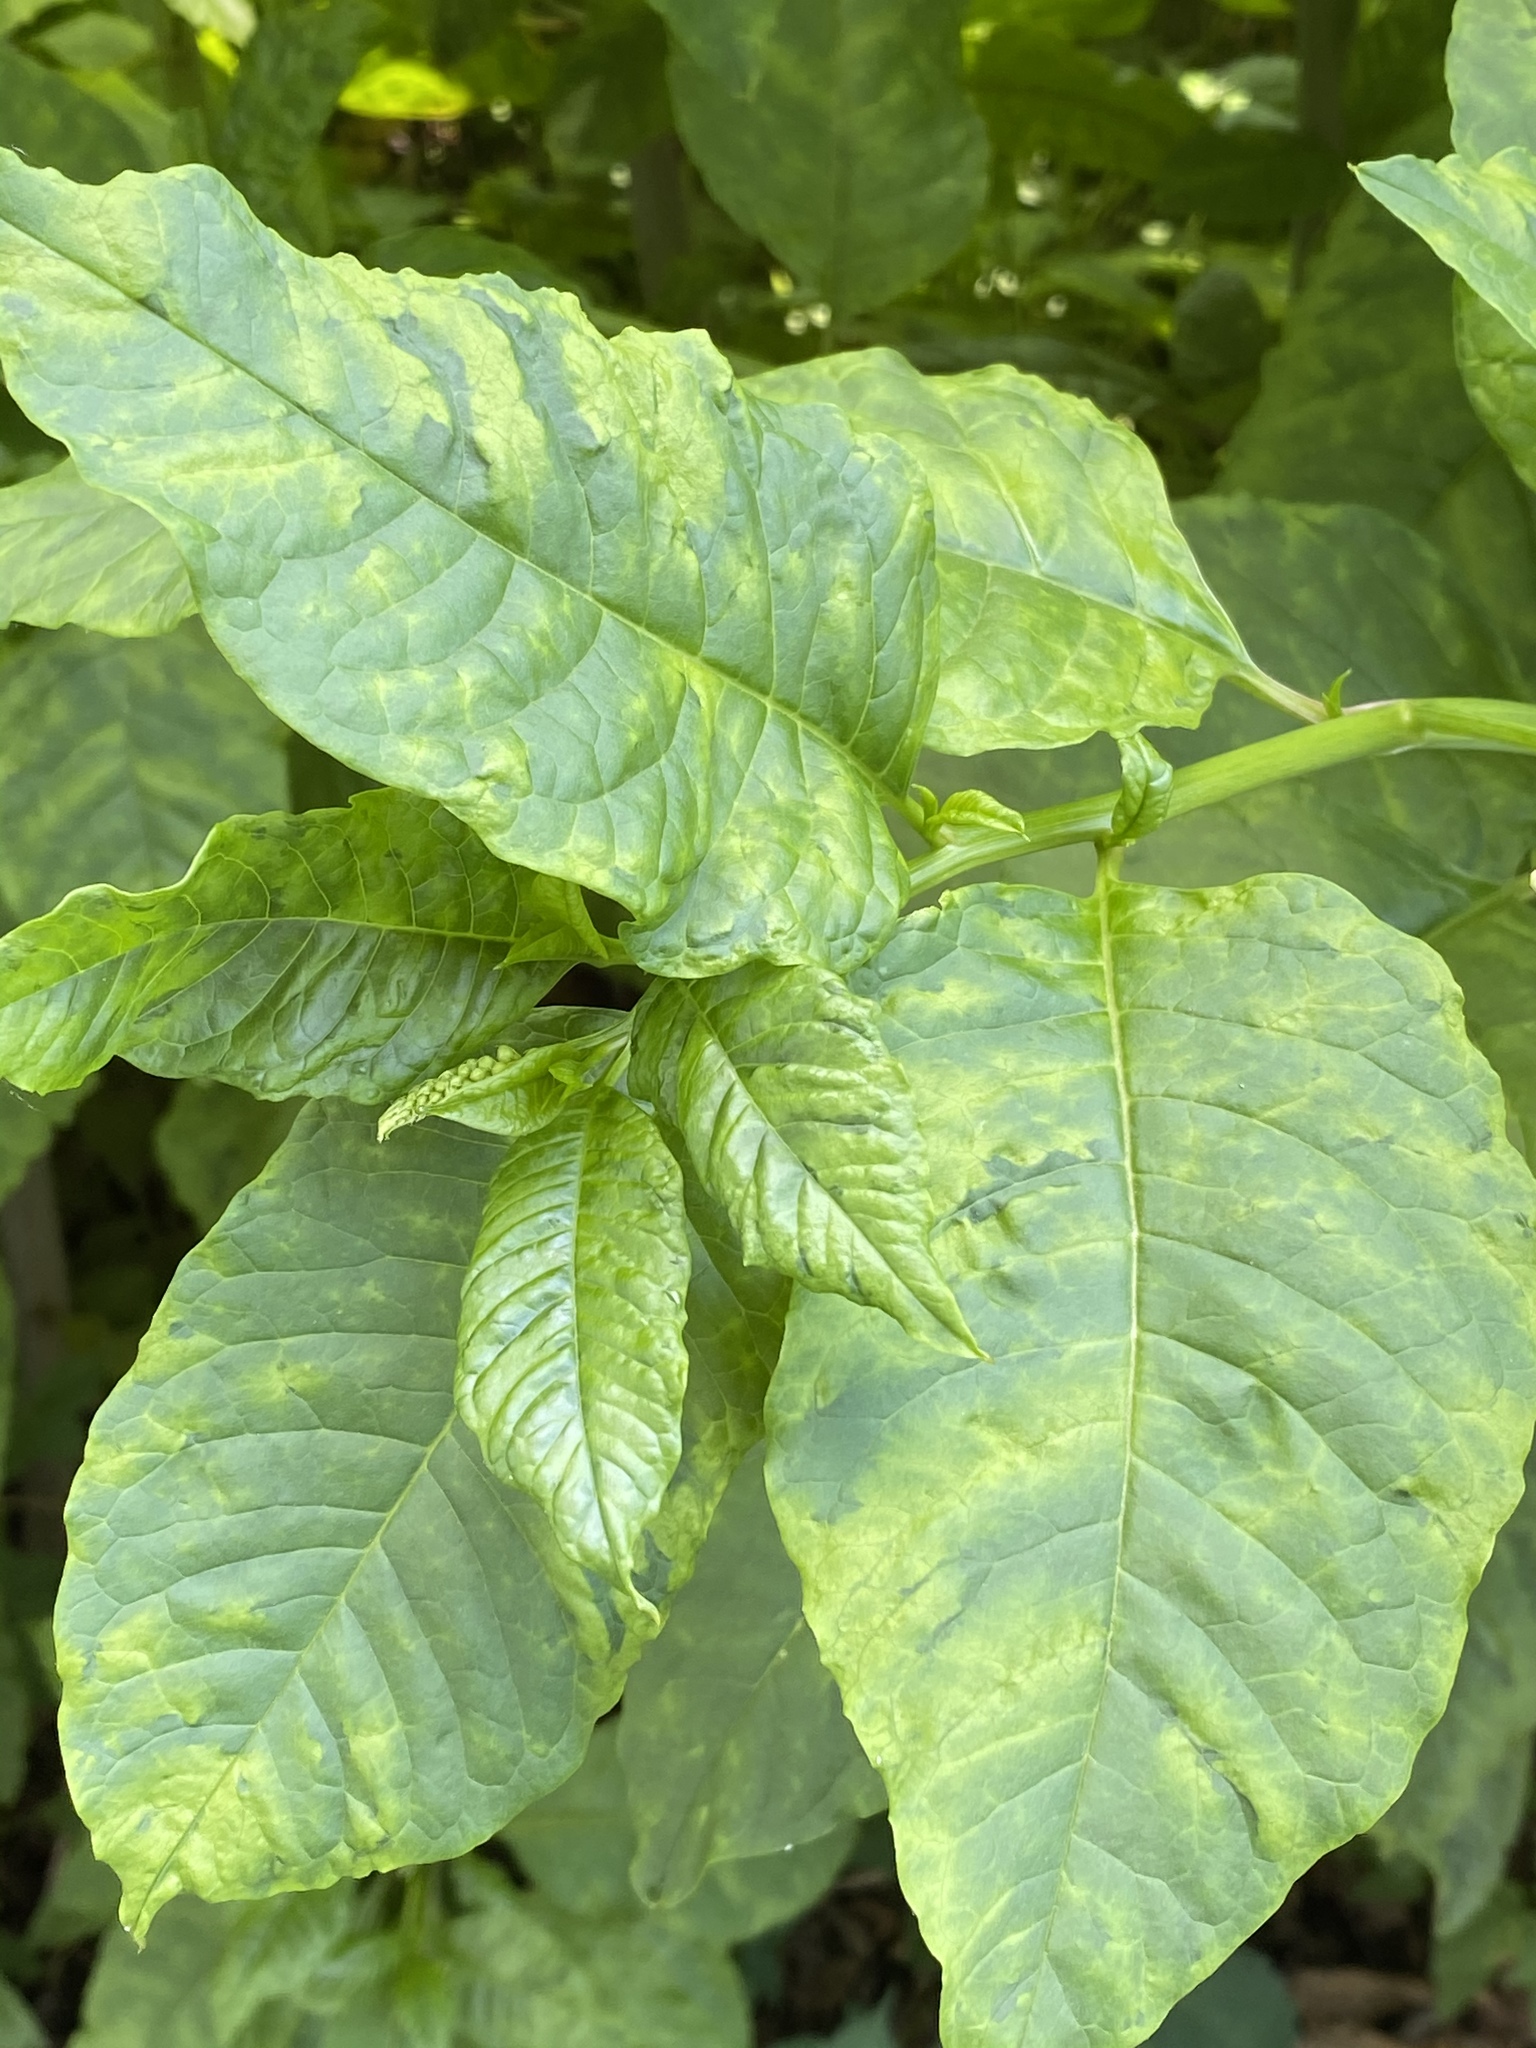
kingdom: Viruses
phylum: Pisuviricota
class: Stelpaviricetes
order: Patatavirales
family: Potyviridae
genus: Potyvirus
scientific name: Potyvirus Pokeweed mosaic virus
